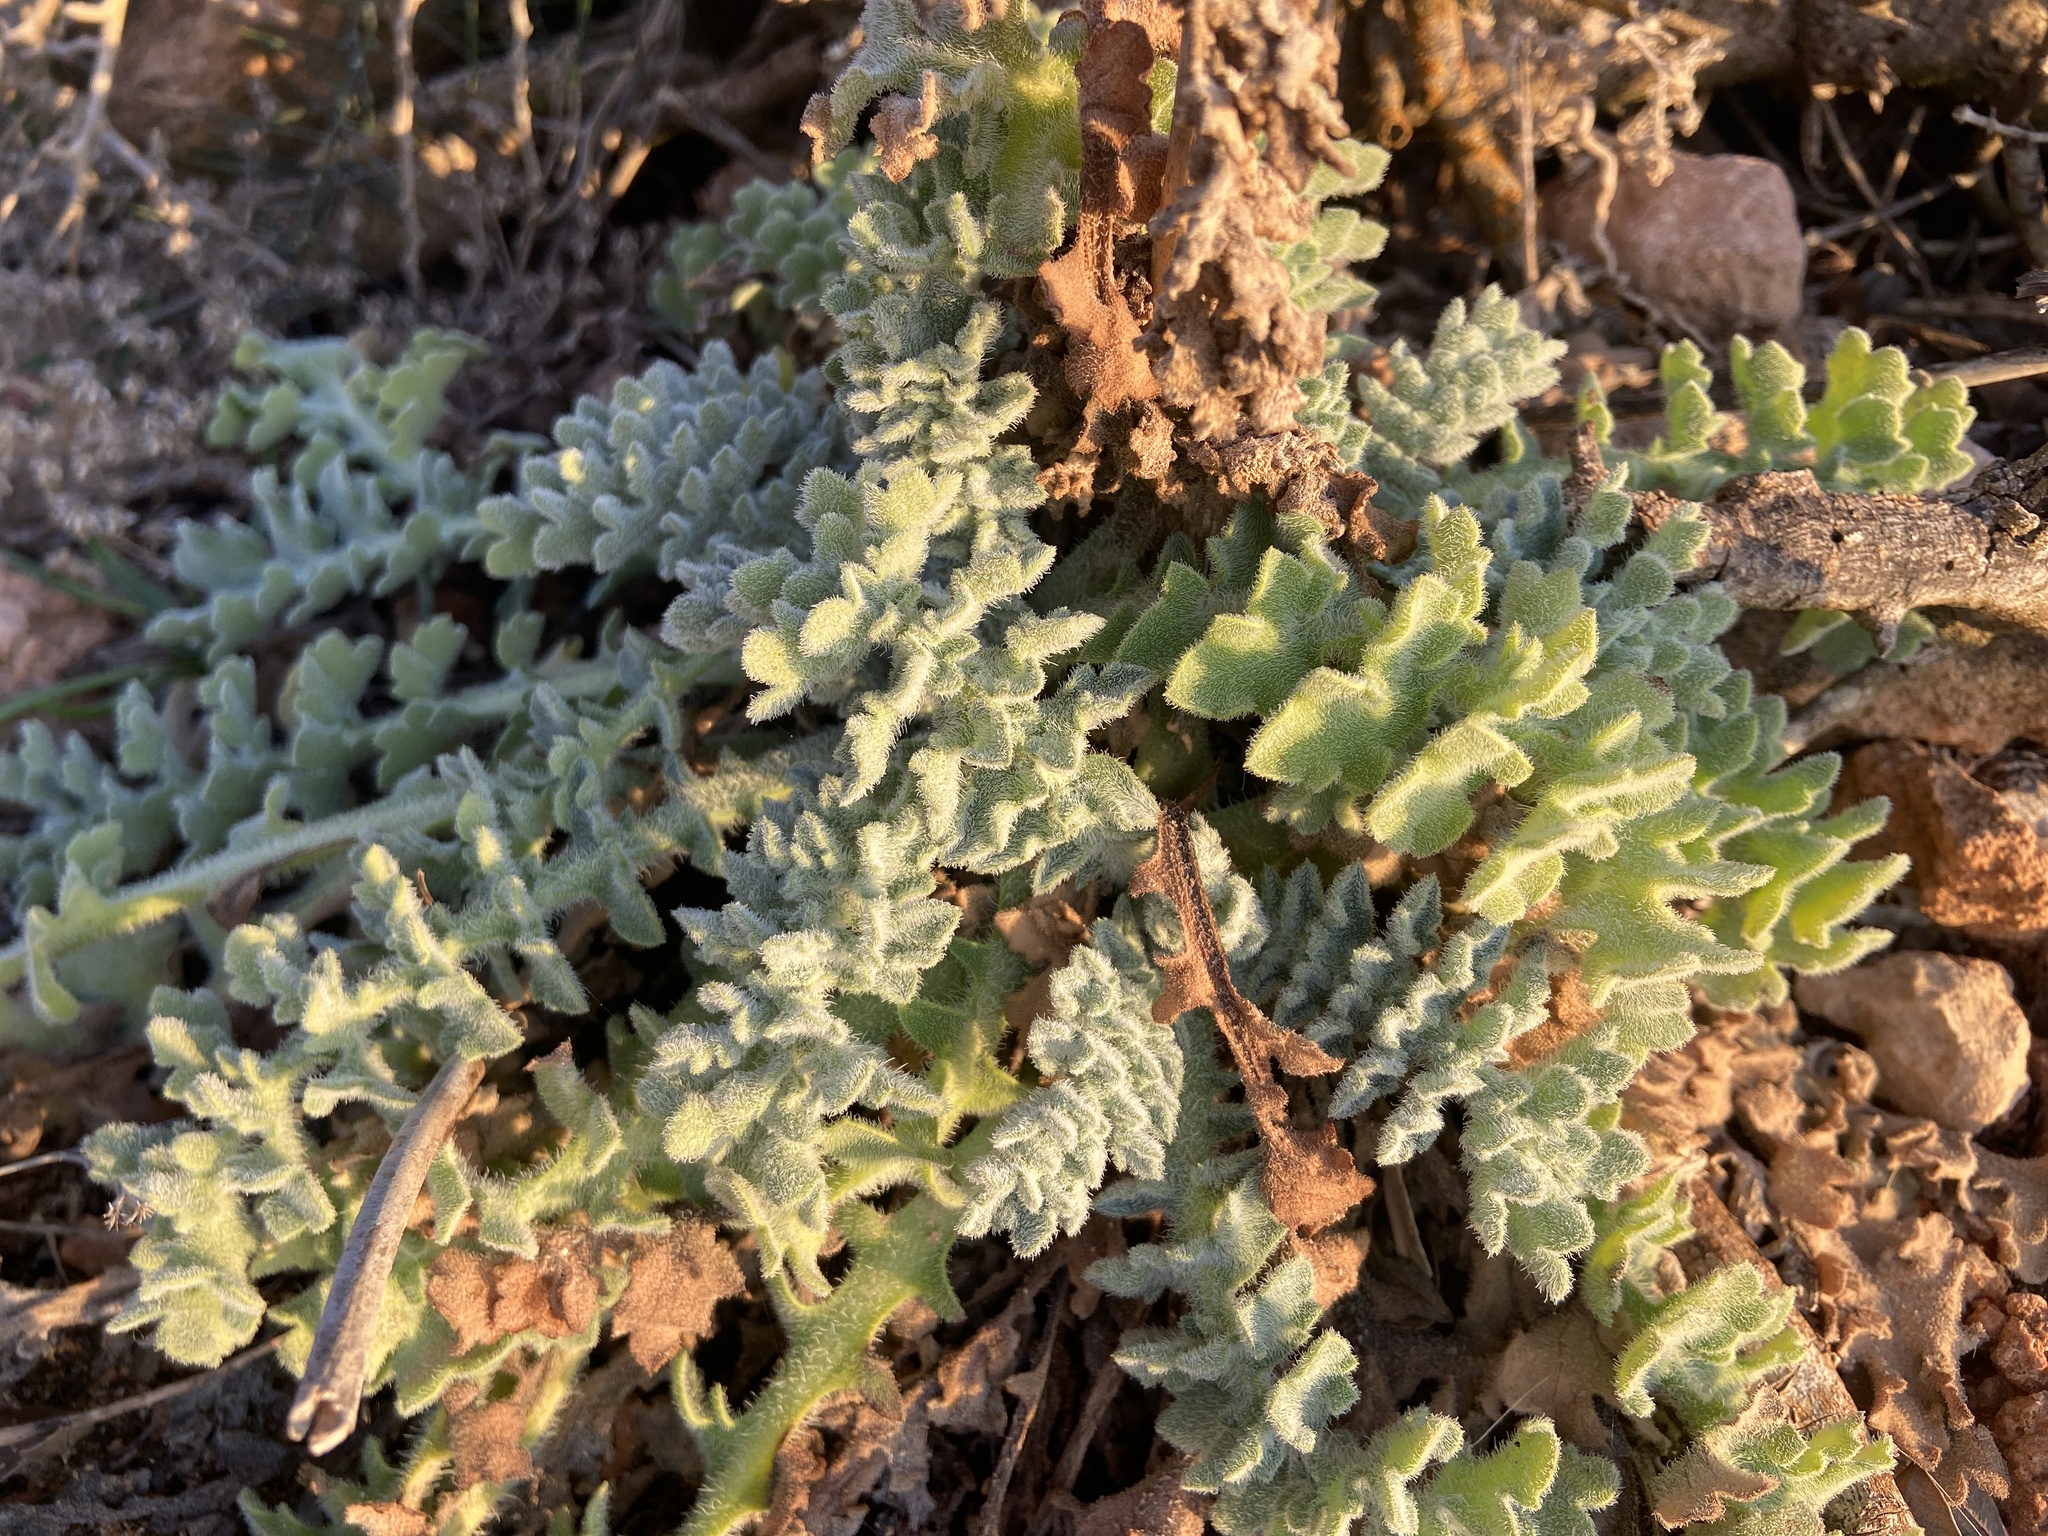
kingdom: Plantae
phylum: Tracheophyta
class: Magnoliopsida
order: Ranunculales
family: Papaveraceae
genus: Glaucium
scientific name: Glaucium flavum
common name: Yellow horned-poppy
